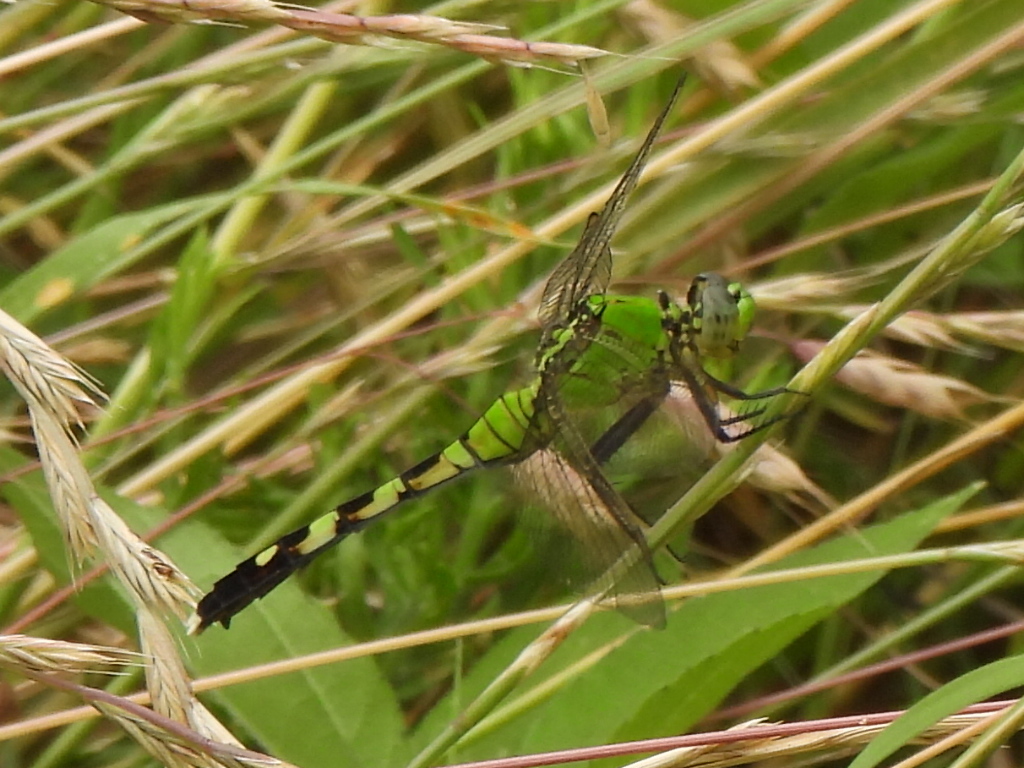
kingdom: Animalia
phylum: Arthropoda
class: Insecta
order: Odonata
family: Libellulidae
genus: Erythemis
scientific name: Erythemis simplicicollis
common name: Eastern pondhawk
